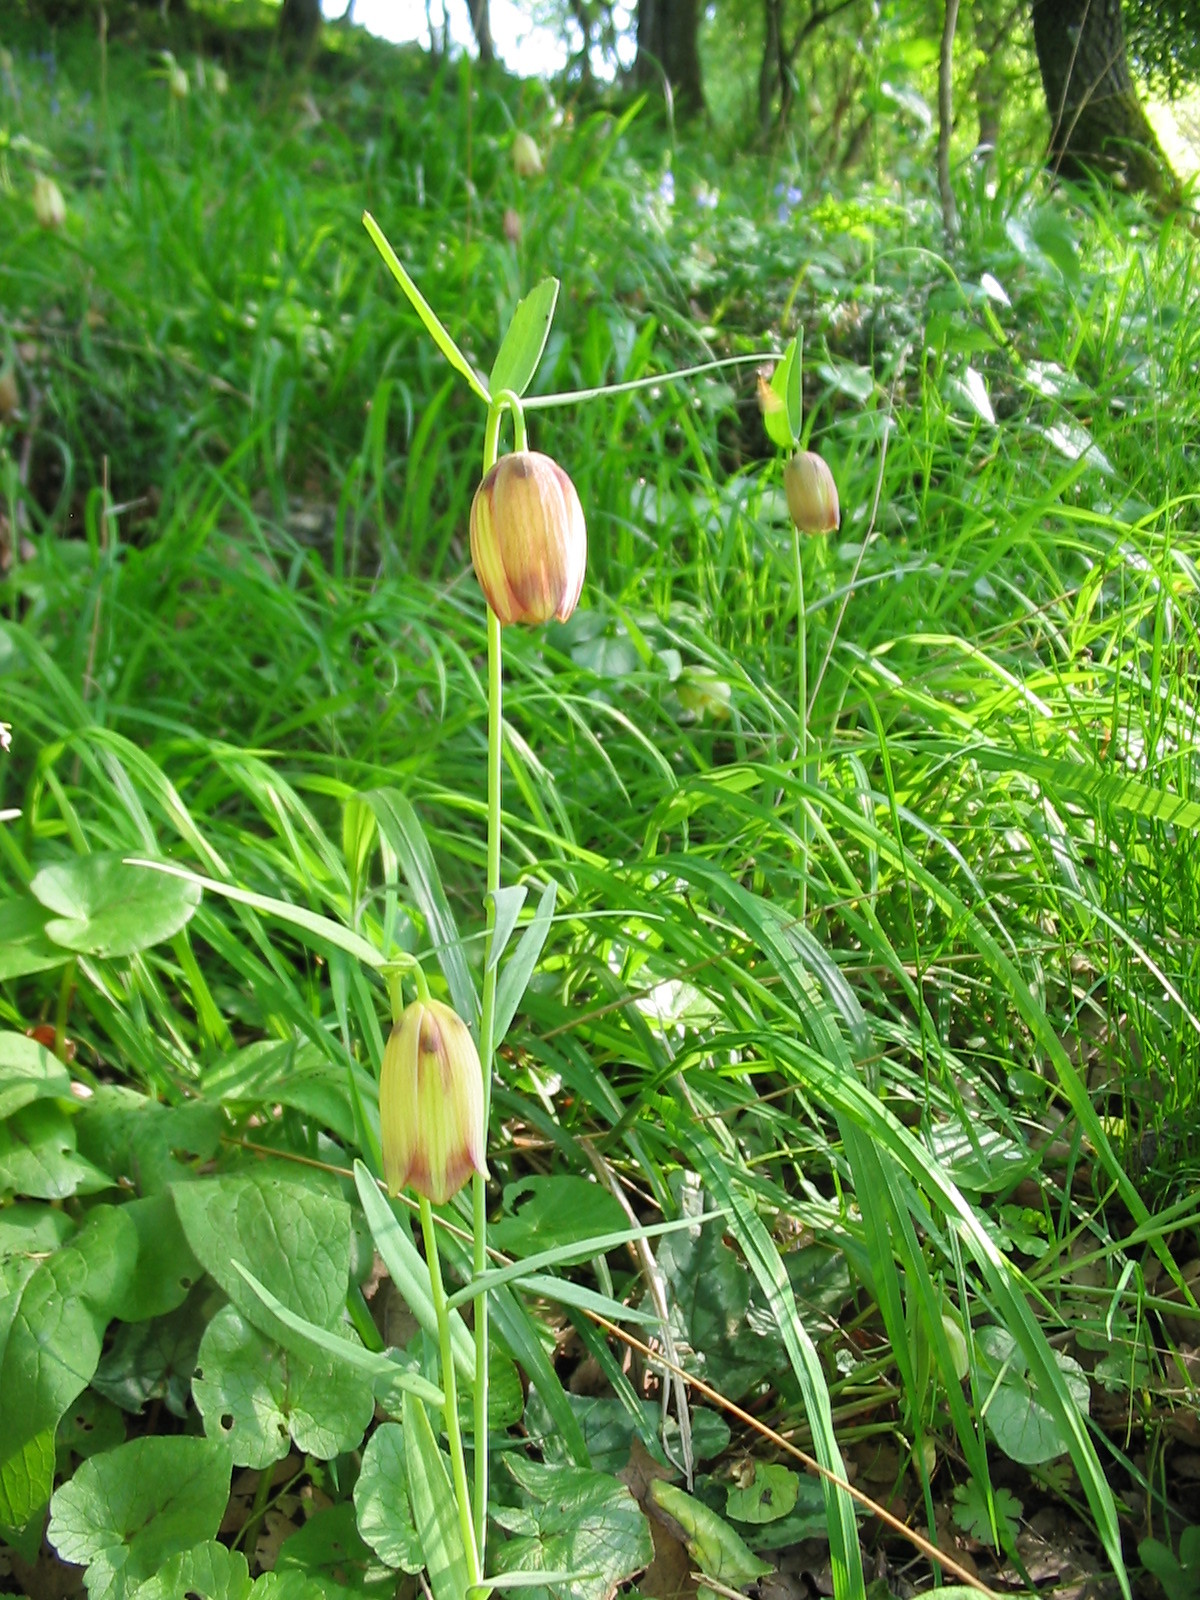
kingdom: Plantae
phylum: Tracheophyta
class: Liliopsida
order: Liliales
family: Liliaceae
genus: Fritillaria
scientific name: Fritillaria gussichiae
